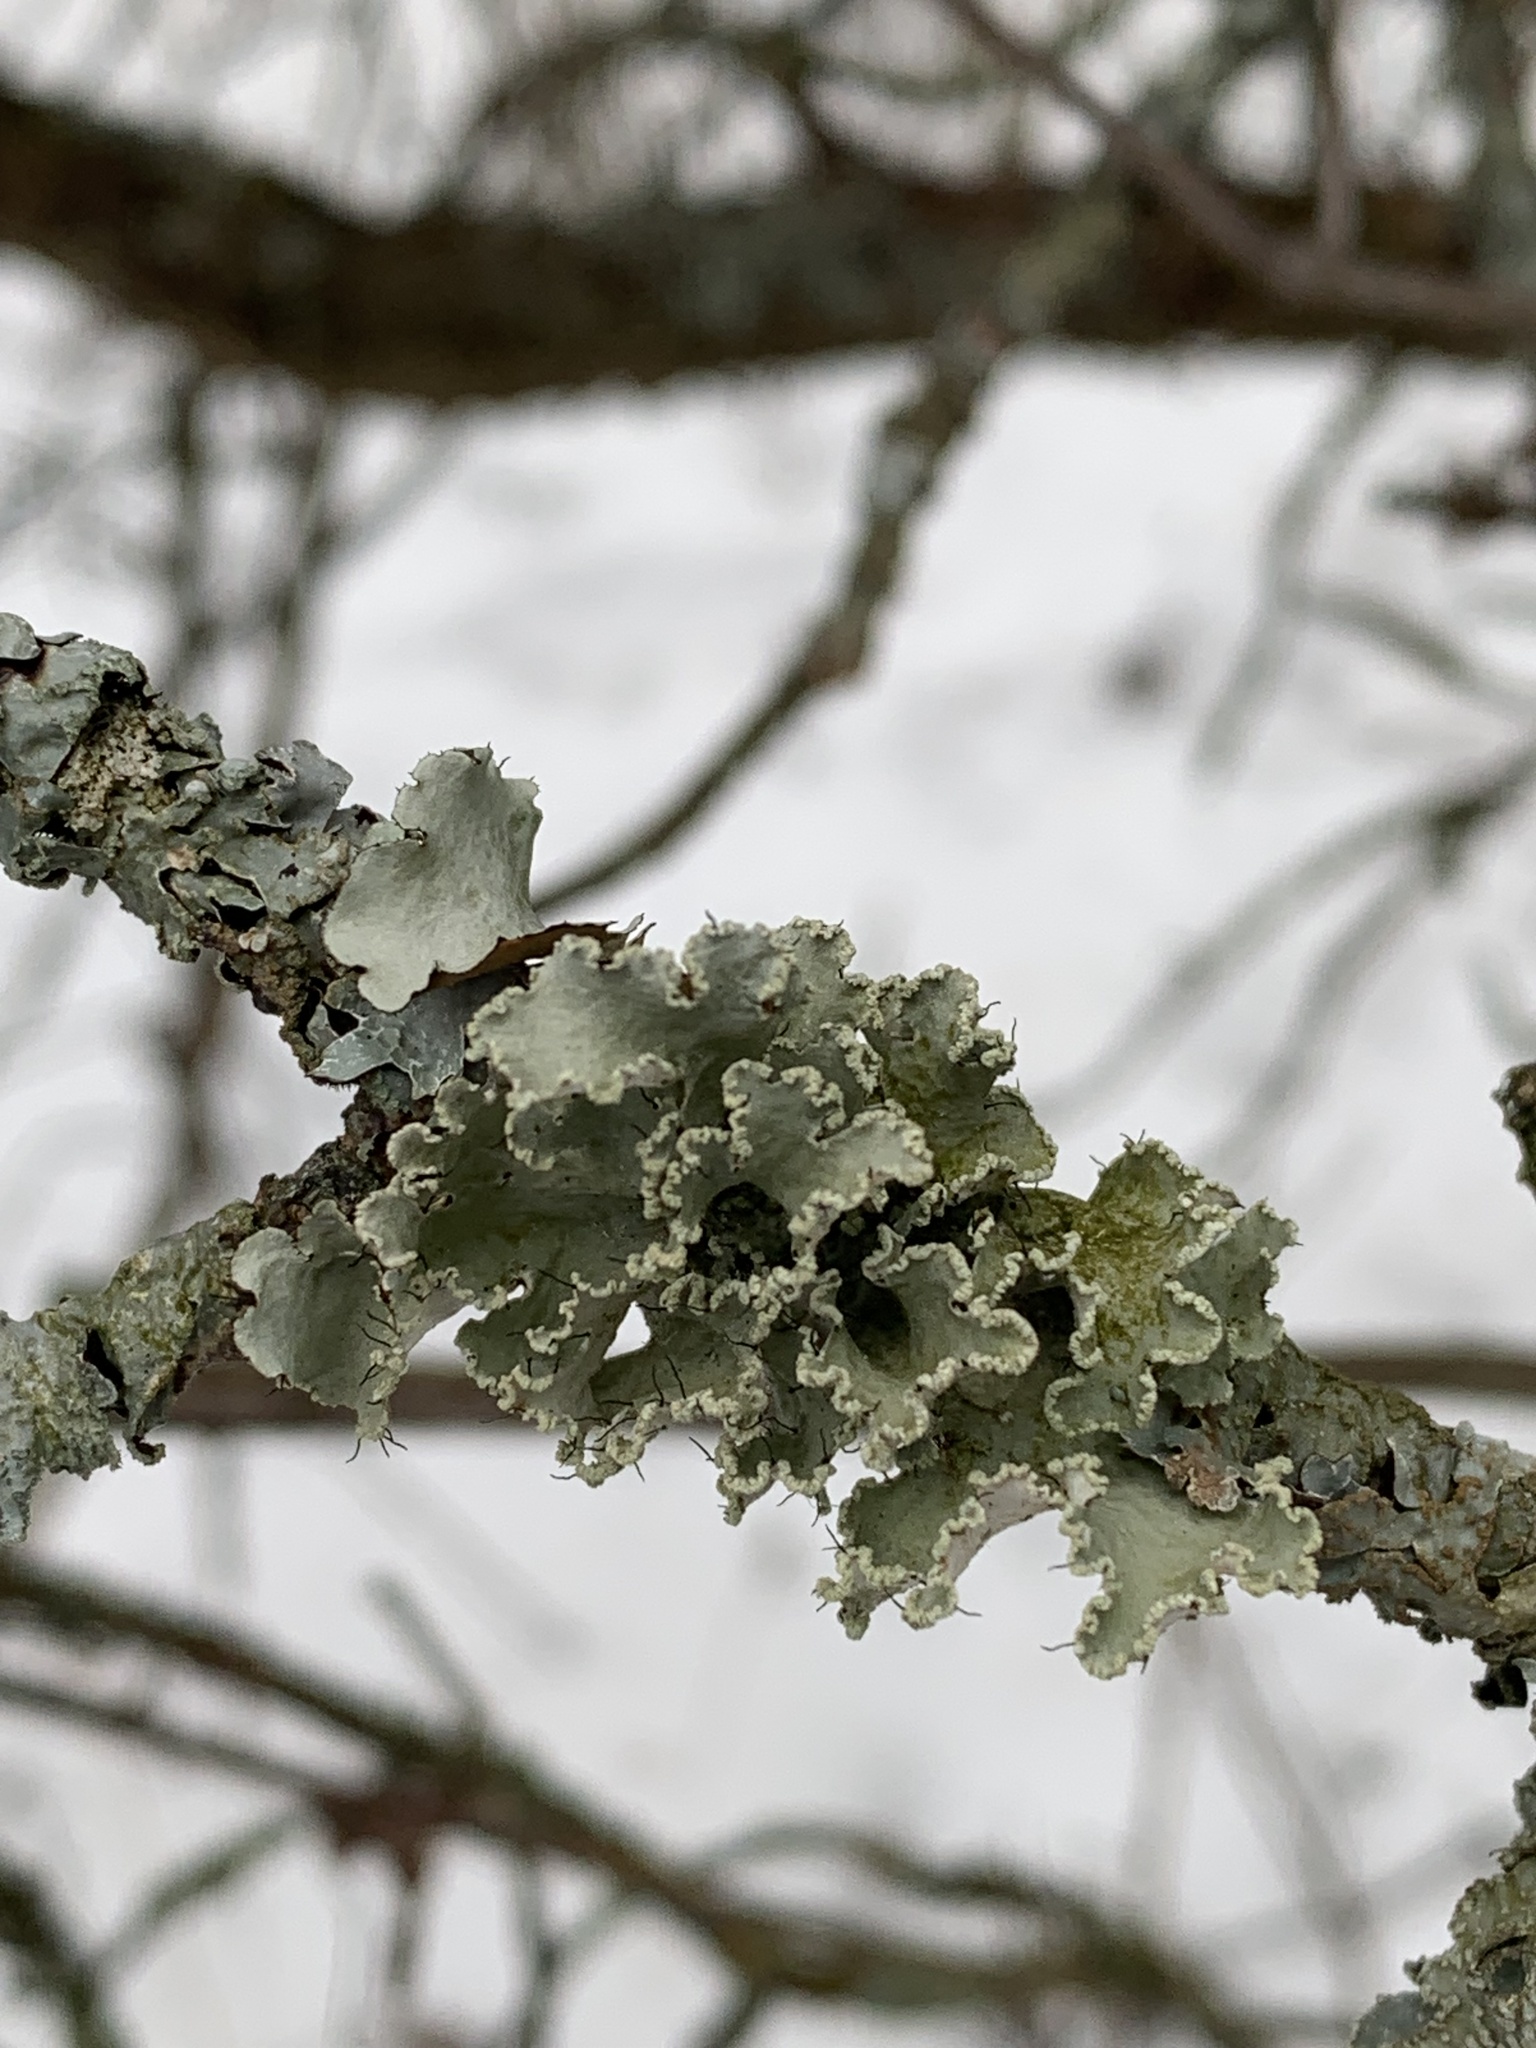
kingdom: Fungi
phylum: Ascomycota
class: Lecanoromycetes
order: Lecanorales
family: Parmeliaceae
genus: Parmotrema
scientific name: Parmotrema hypotropum
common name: Powdered ruffle lichen
